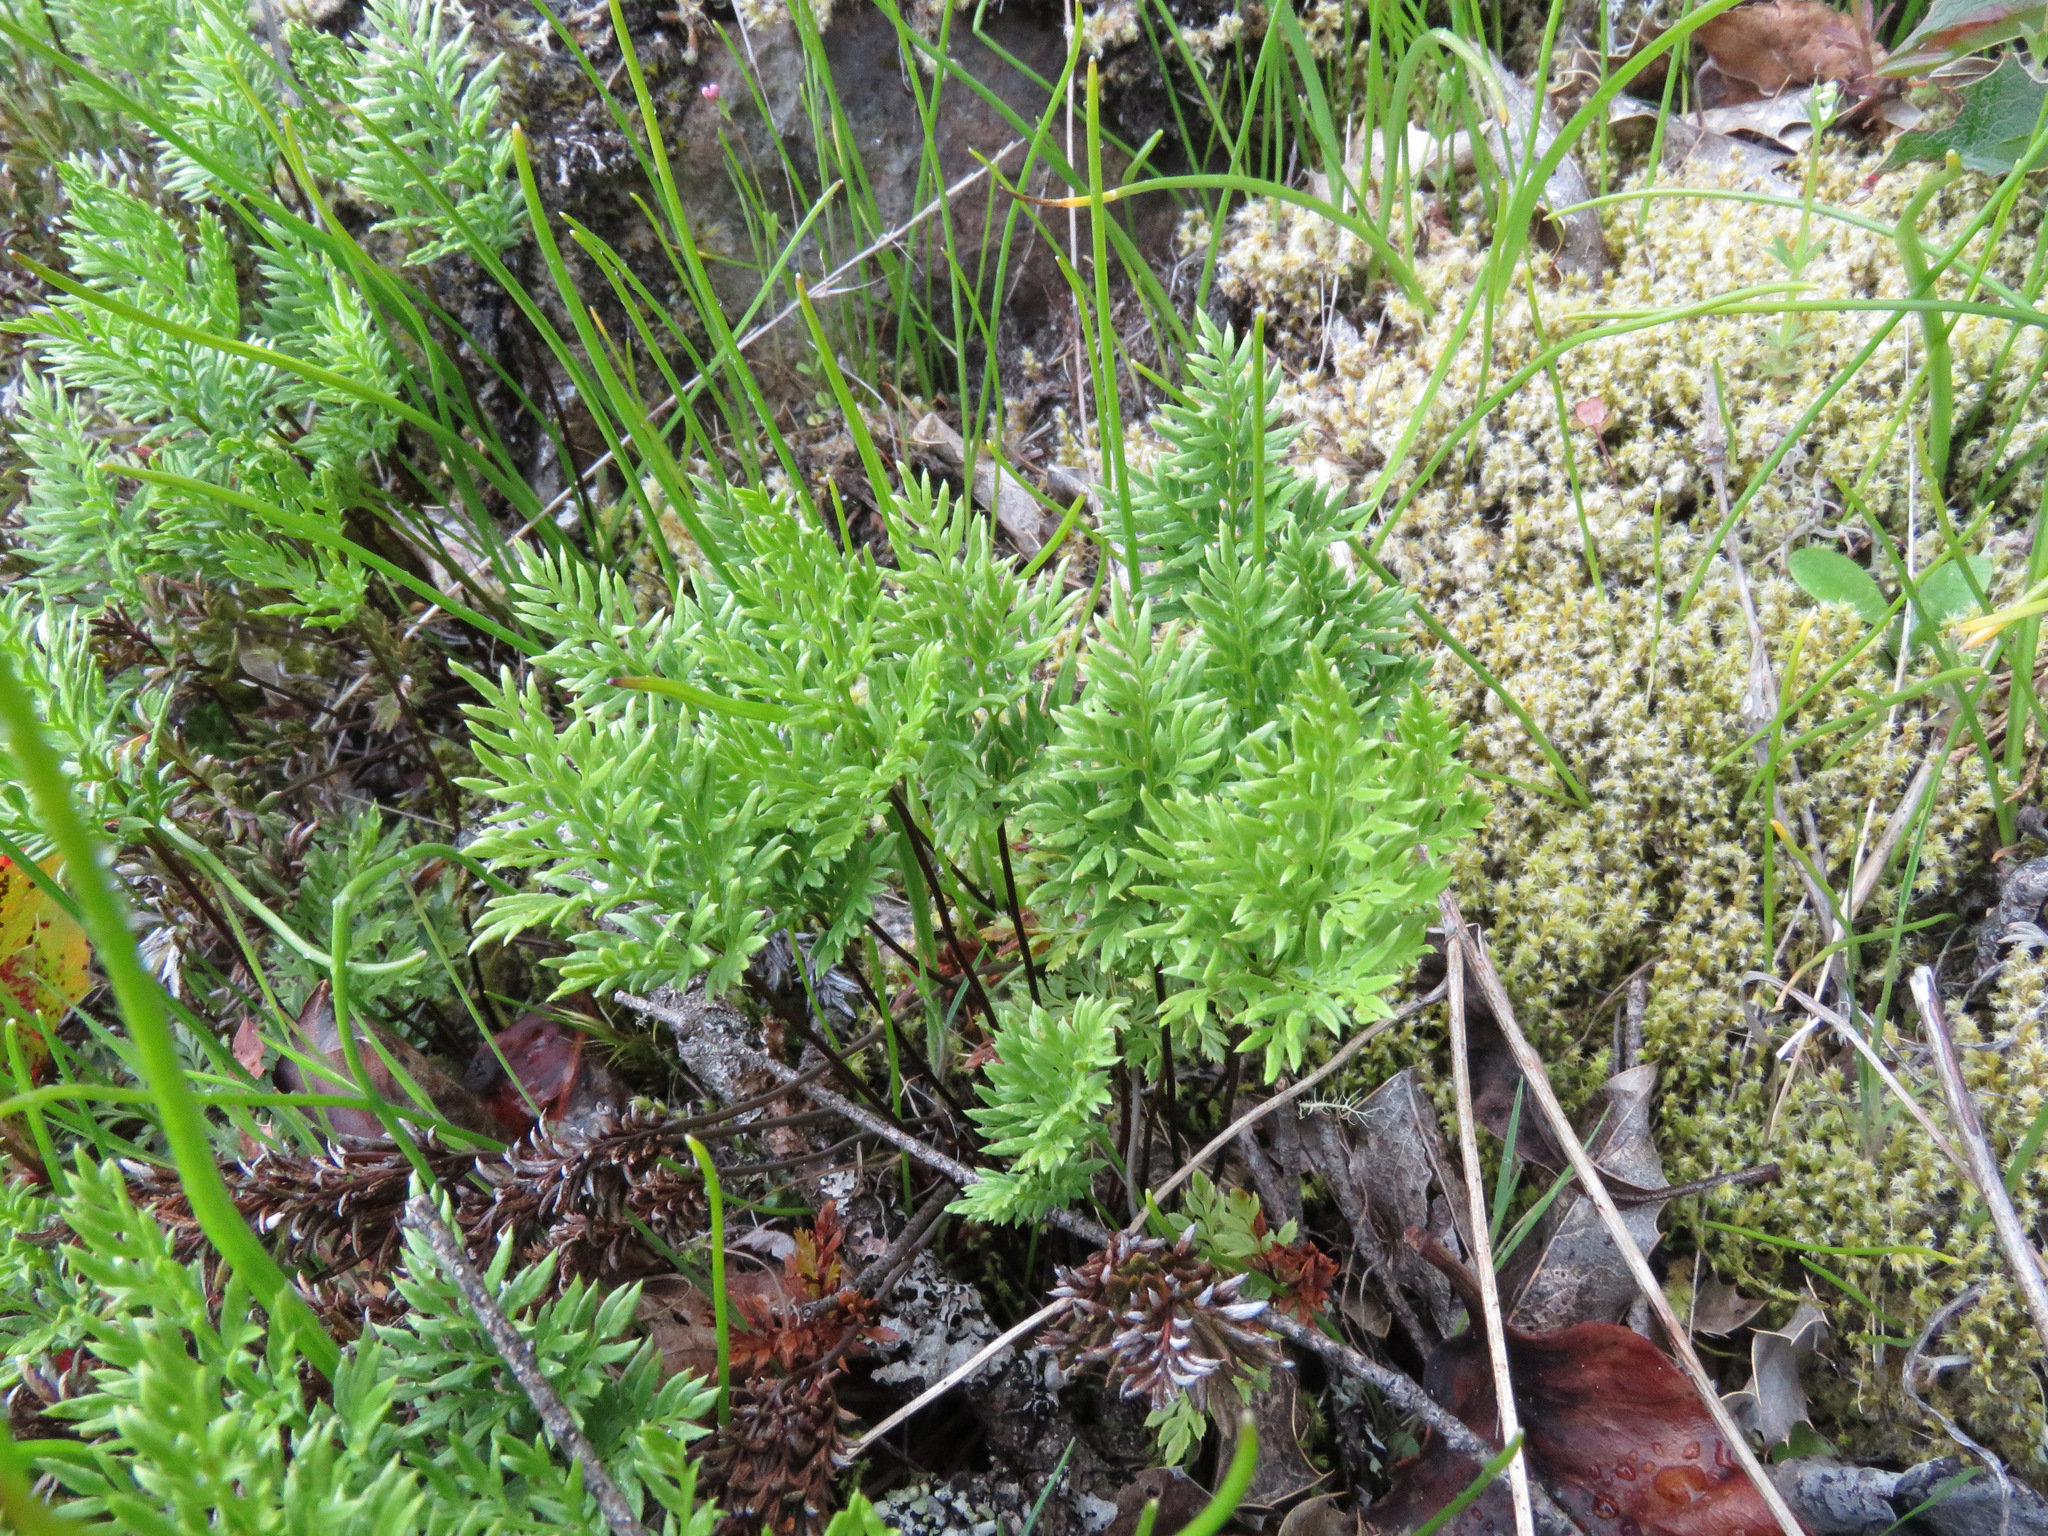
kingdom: Plantae
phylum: Tracheophyta
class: Polypodiopsida
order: Polypodiales
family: Pteridaceae
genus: Aspidotis
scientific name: Aspidotis densa
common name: Indian's dream
